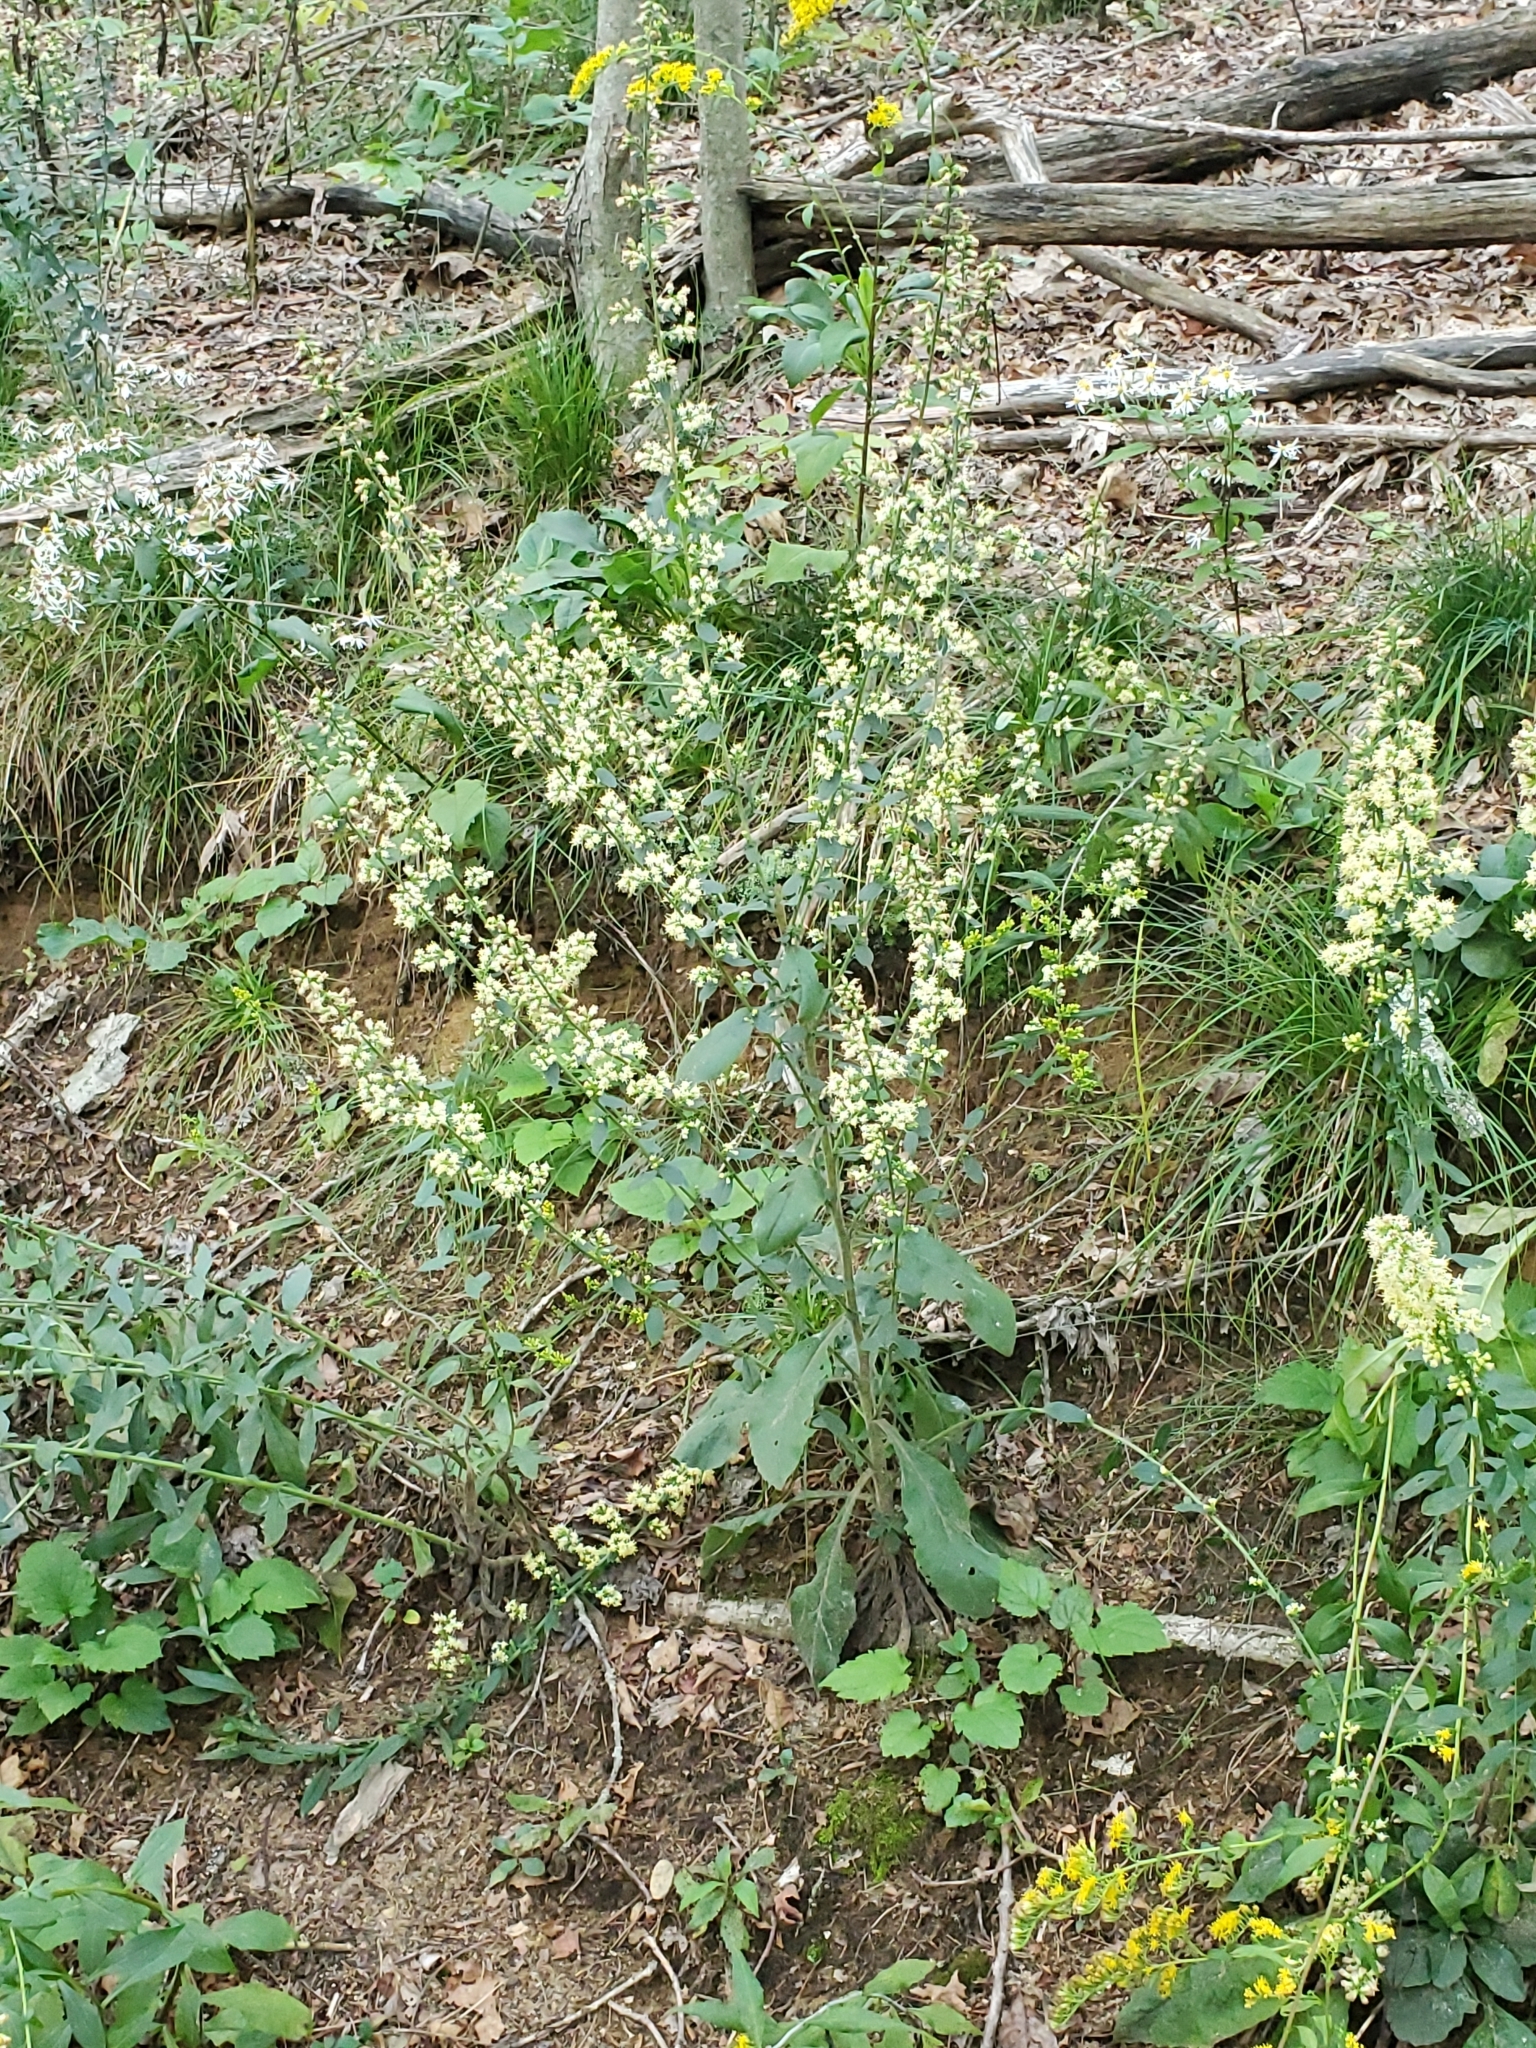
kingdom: Plantae
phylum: Tracheophyta
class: Magnoliopsida
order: Asterales
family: Asteraceae
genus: Solidago
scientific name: Solidago bicolor
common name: Silverrod
